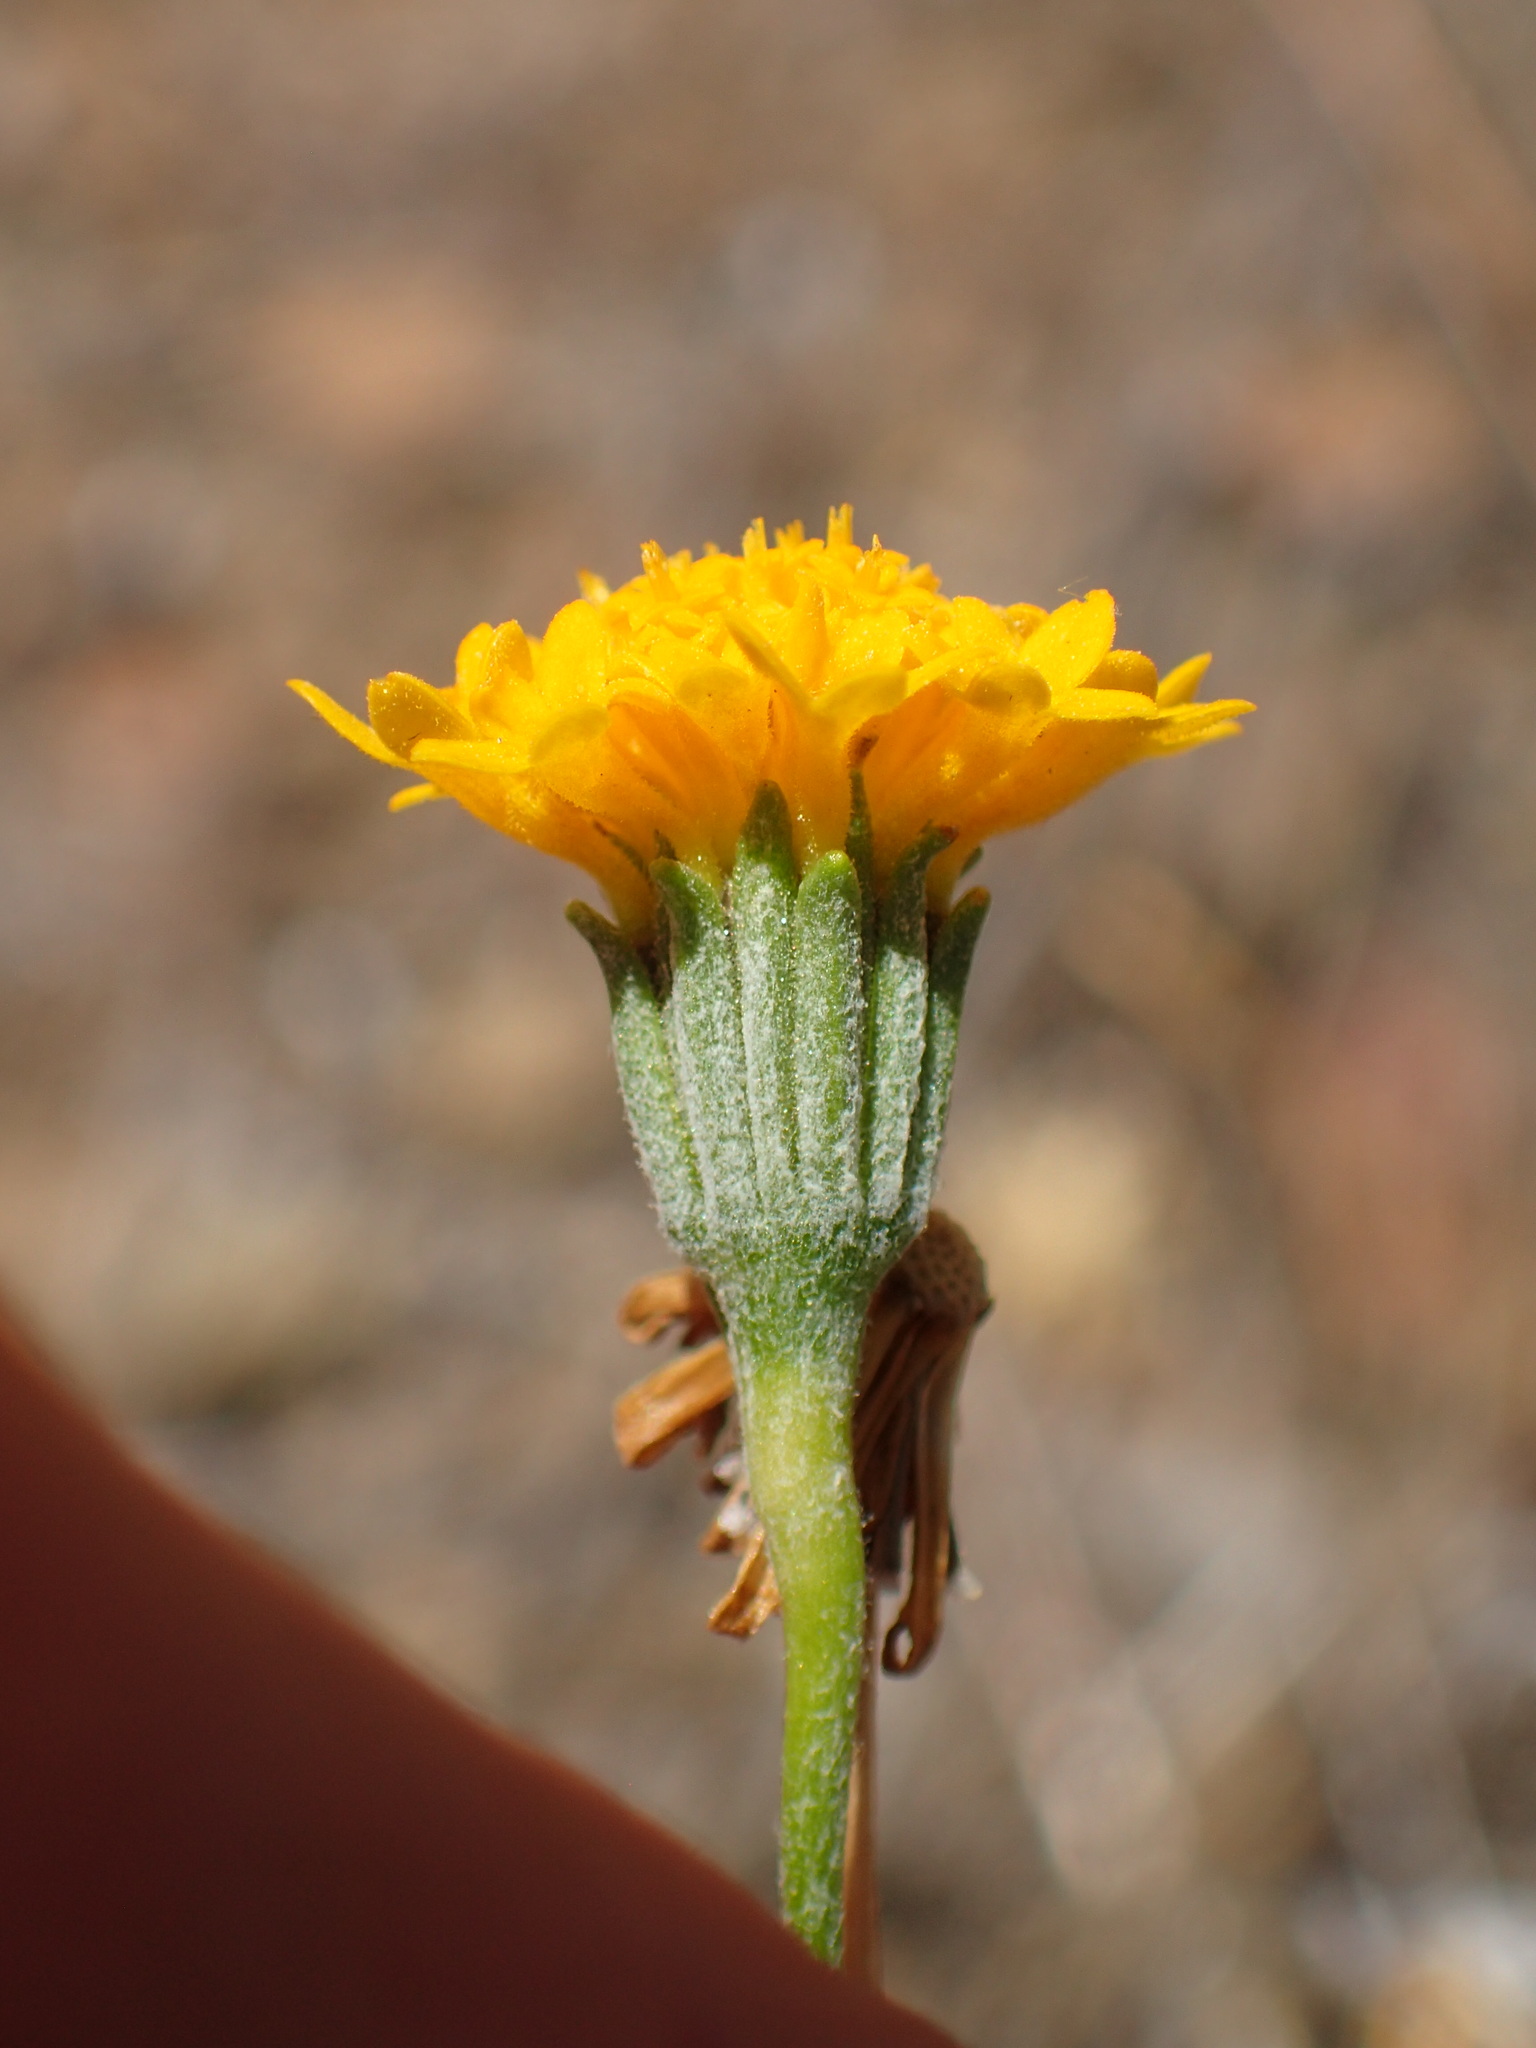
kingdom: Plantae
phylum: Tracheophyta
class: Magnoliopsida
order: Asterales
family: Asteraceae
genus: Chaenactis
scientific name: Chaenactis glabriuscula
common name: Yellow pincushion
